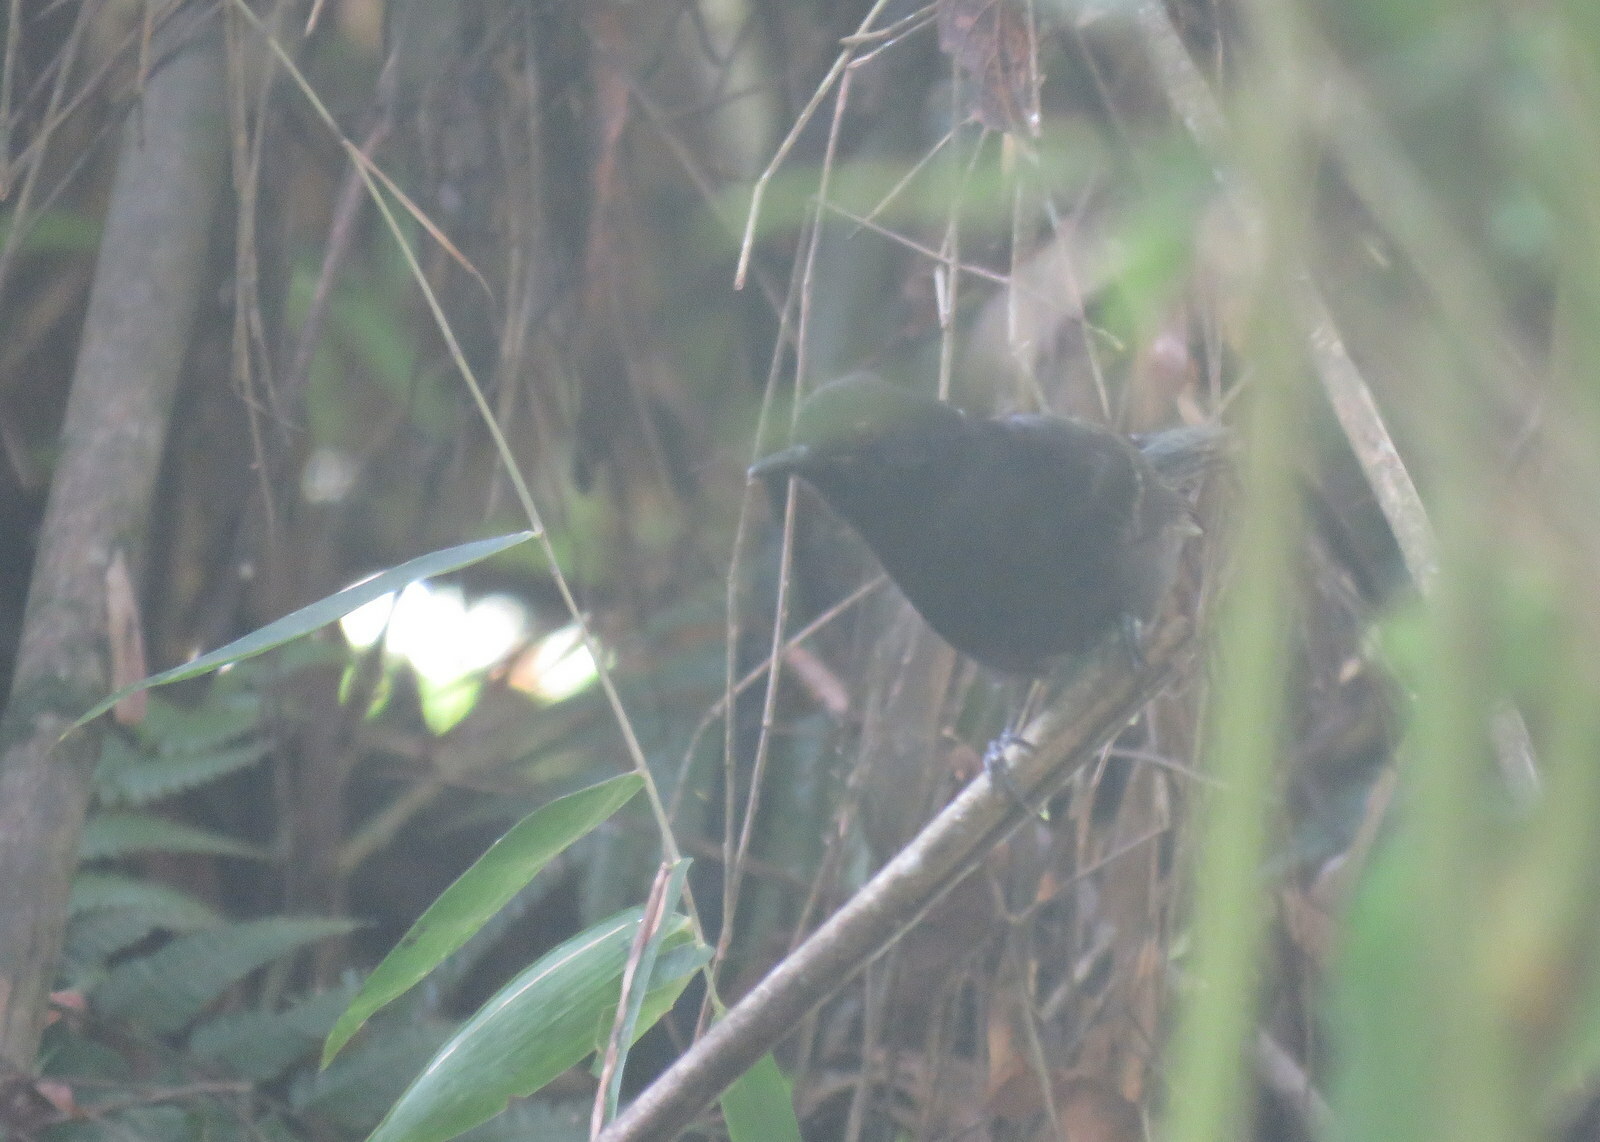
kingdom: Animalia
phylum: Chordata
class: Aves
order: Passeriformes
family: Thamnophilidae
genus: Pyriglena
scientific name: Pyriglena leucoptera
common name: White-shouldered fire-eye
